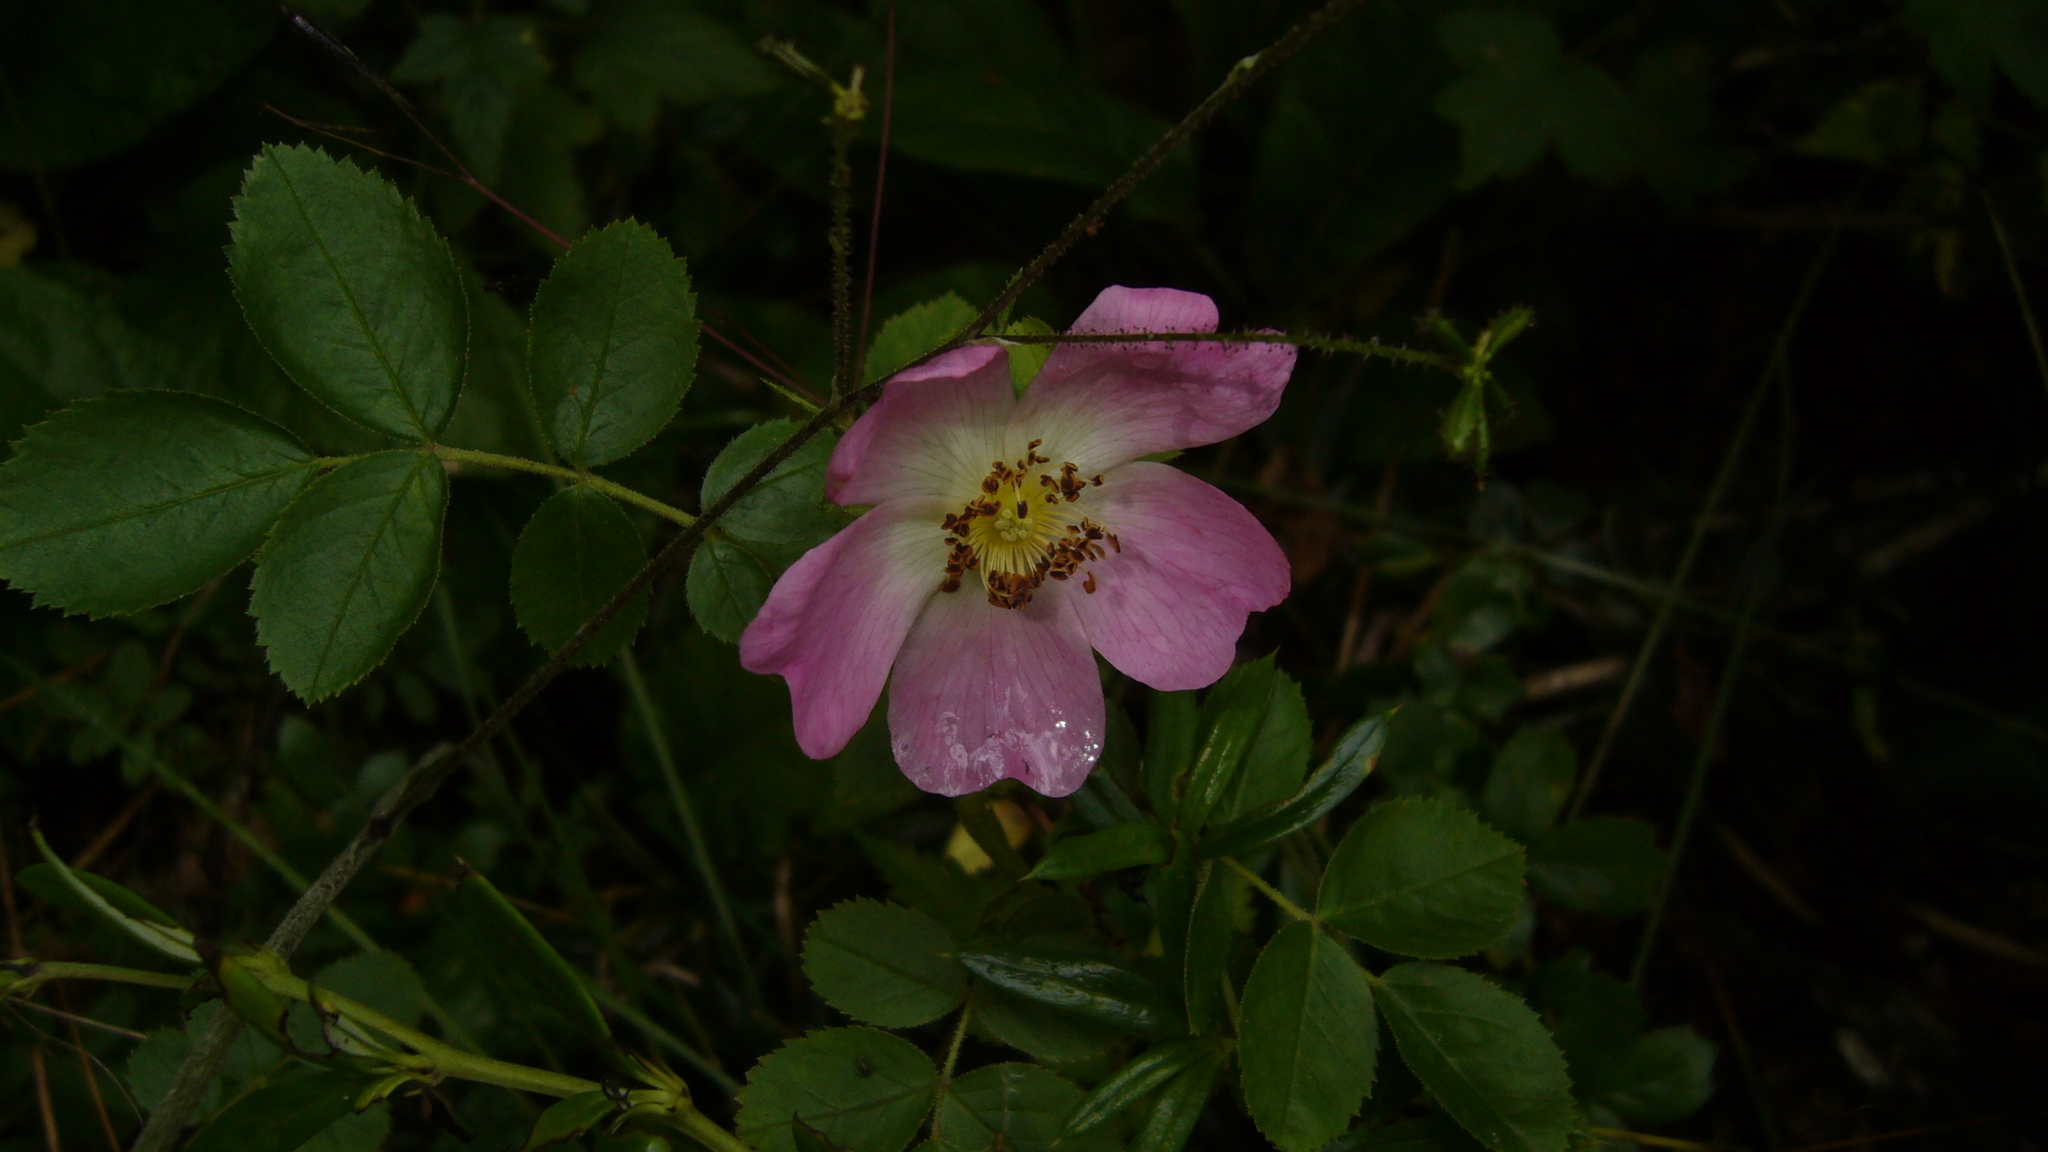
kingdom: Plantae
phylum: Tracheophyta
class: Magnoliopsida
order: Rosales
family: Rosaceae
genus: Rosa
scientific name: Rosa rubiginosa
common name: Sweet-briar
